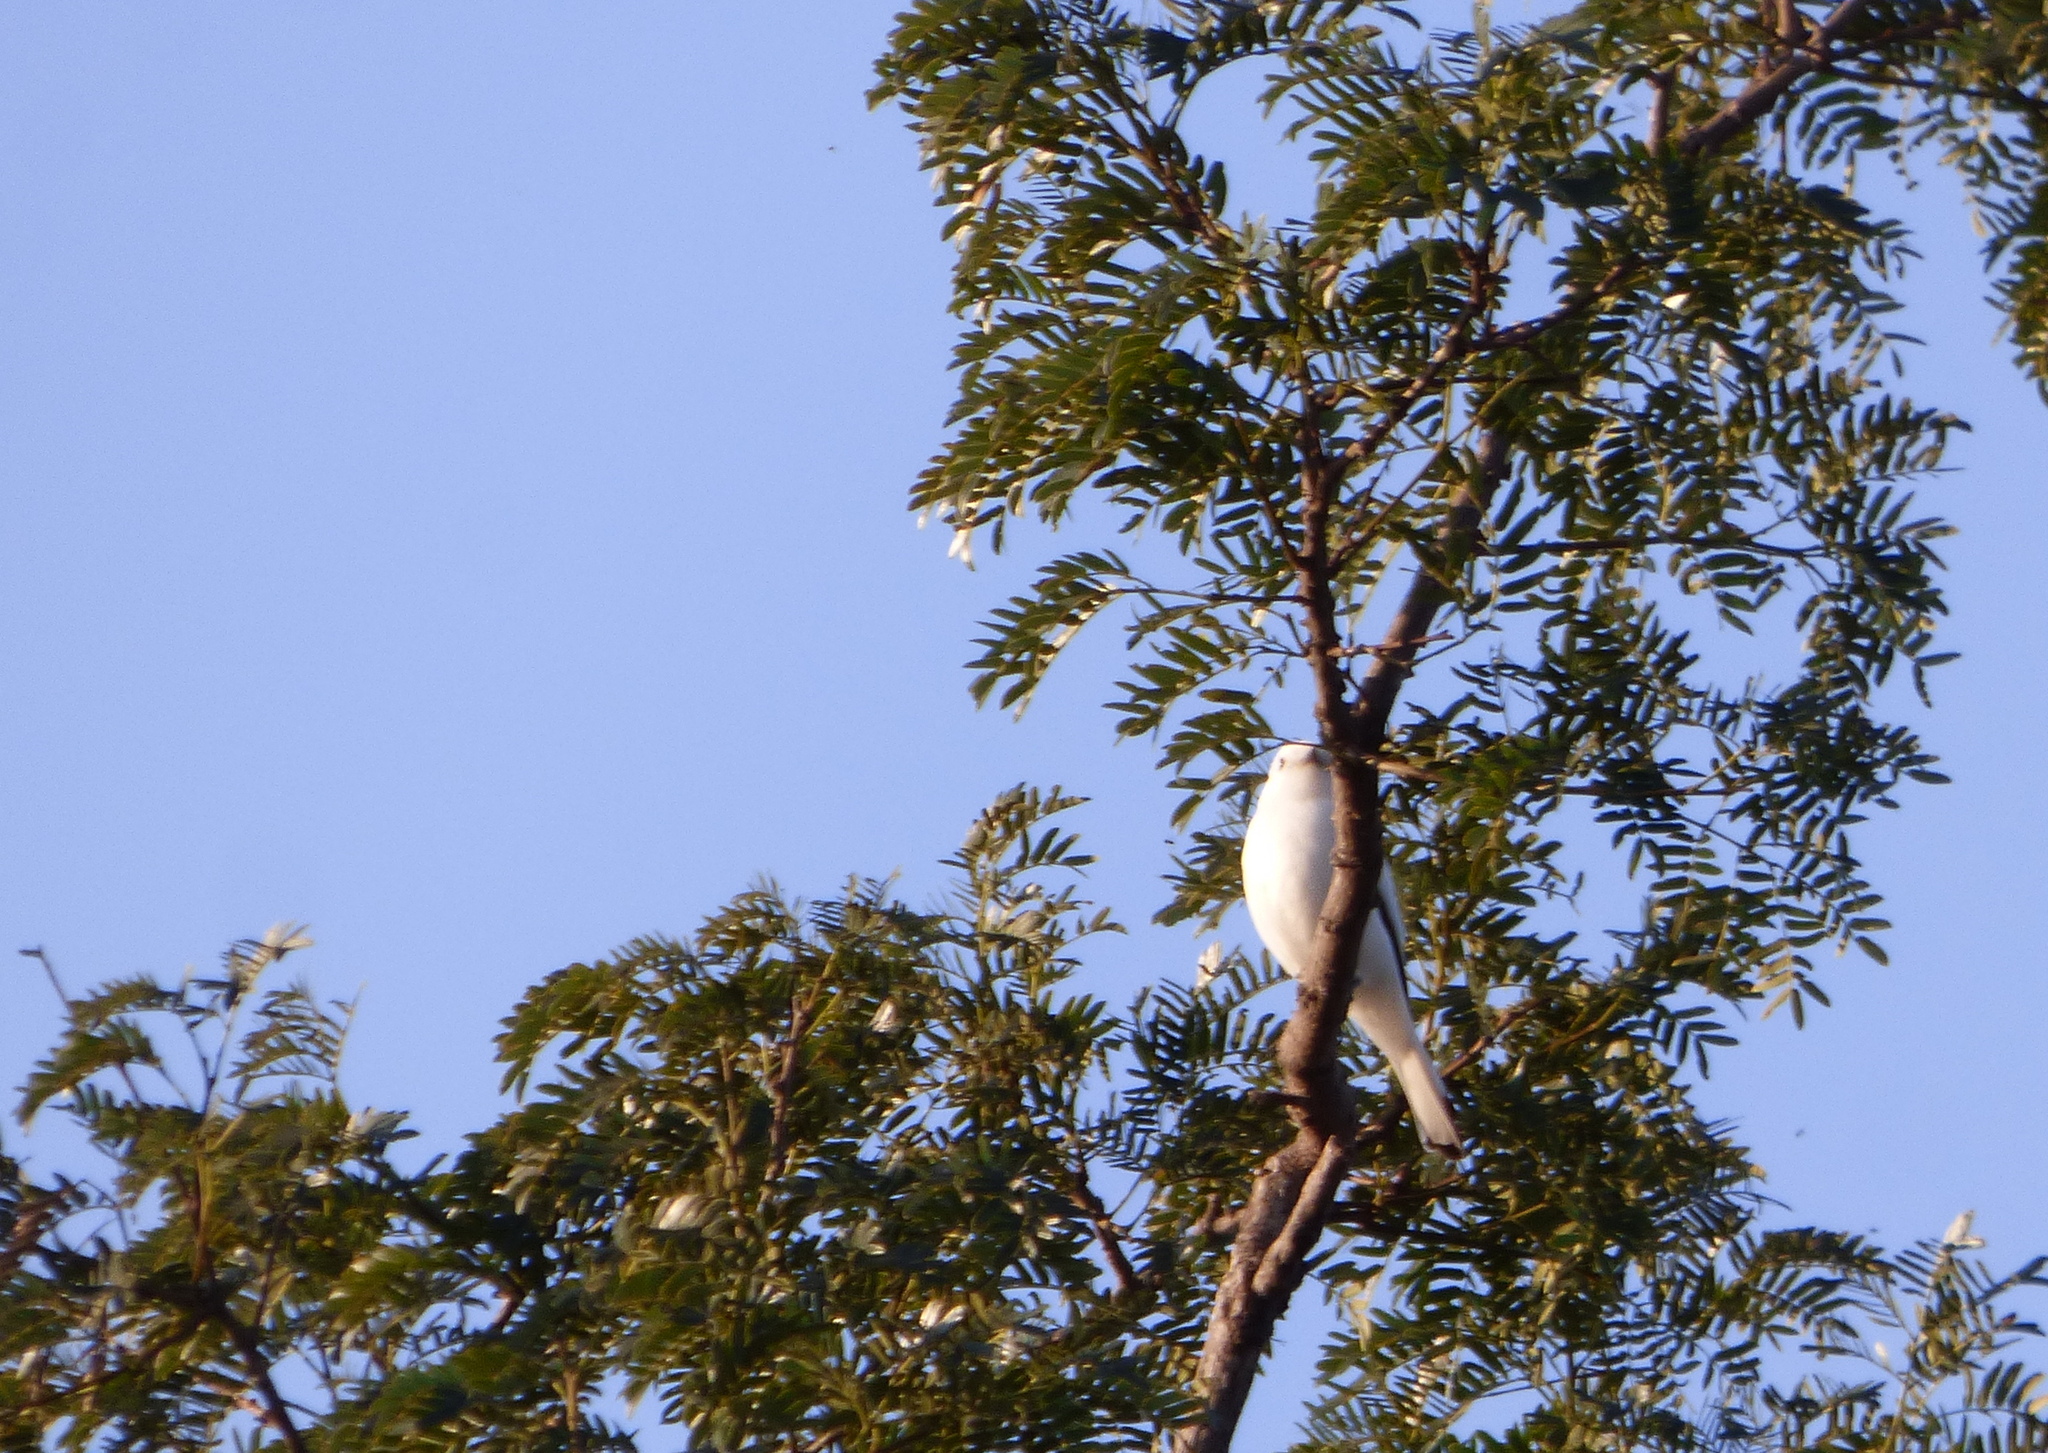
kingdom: Animalia
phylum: Chordata
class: Aves
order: Passeriformes
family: Tyrannidae
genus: Xolmis
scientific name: Xolmis irupero
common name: White monjita
